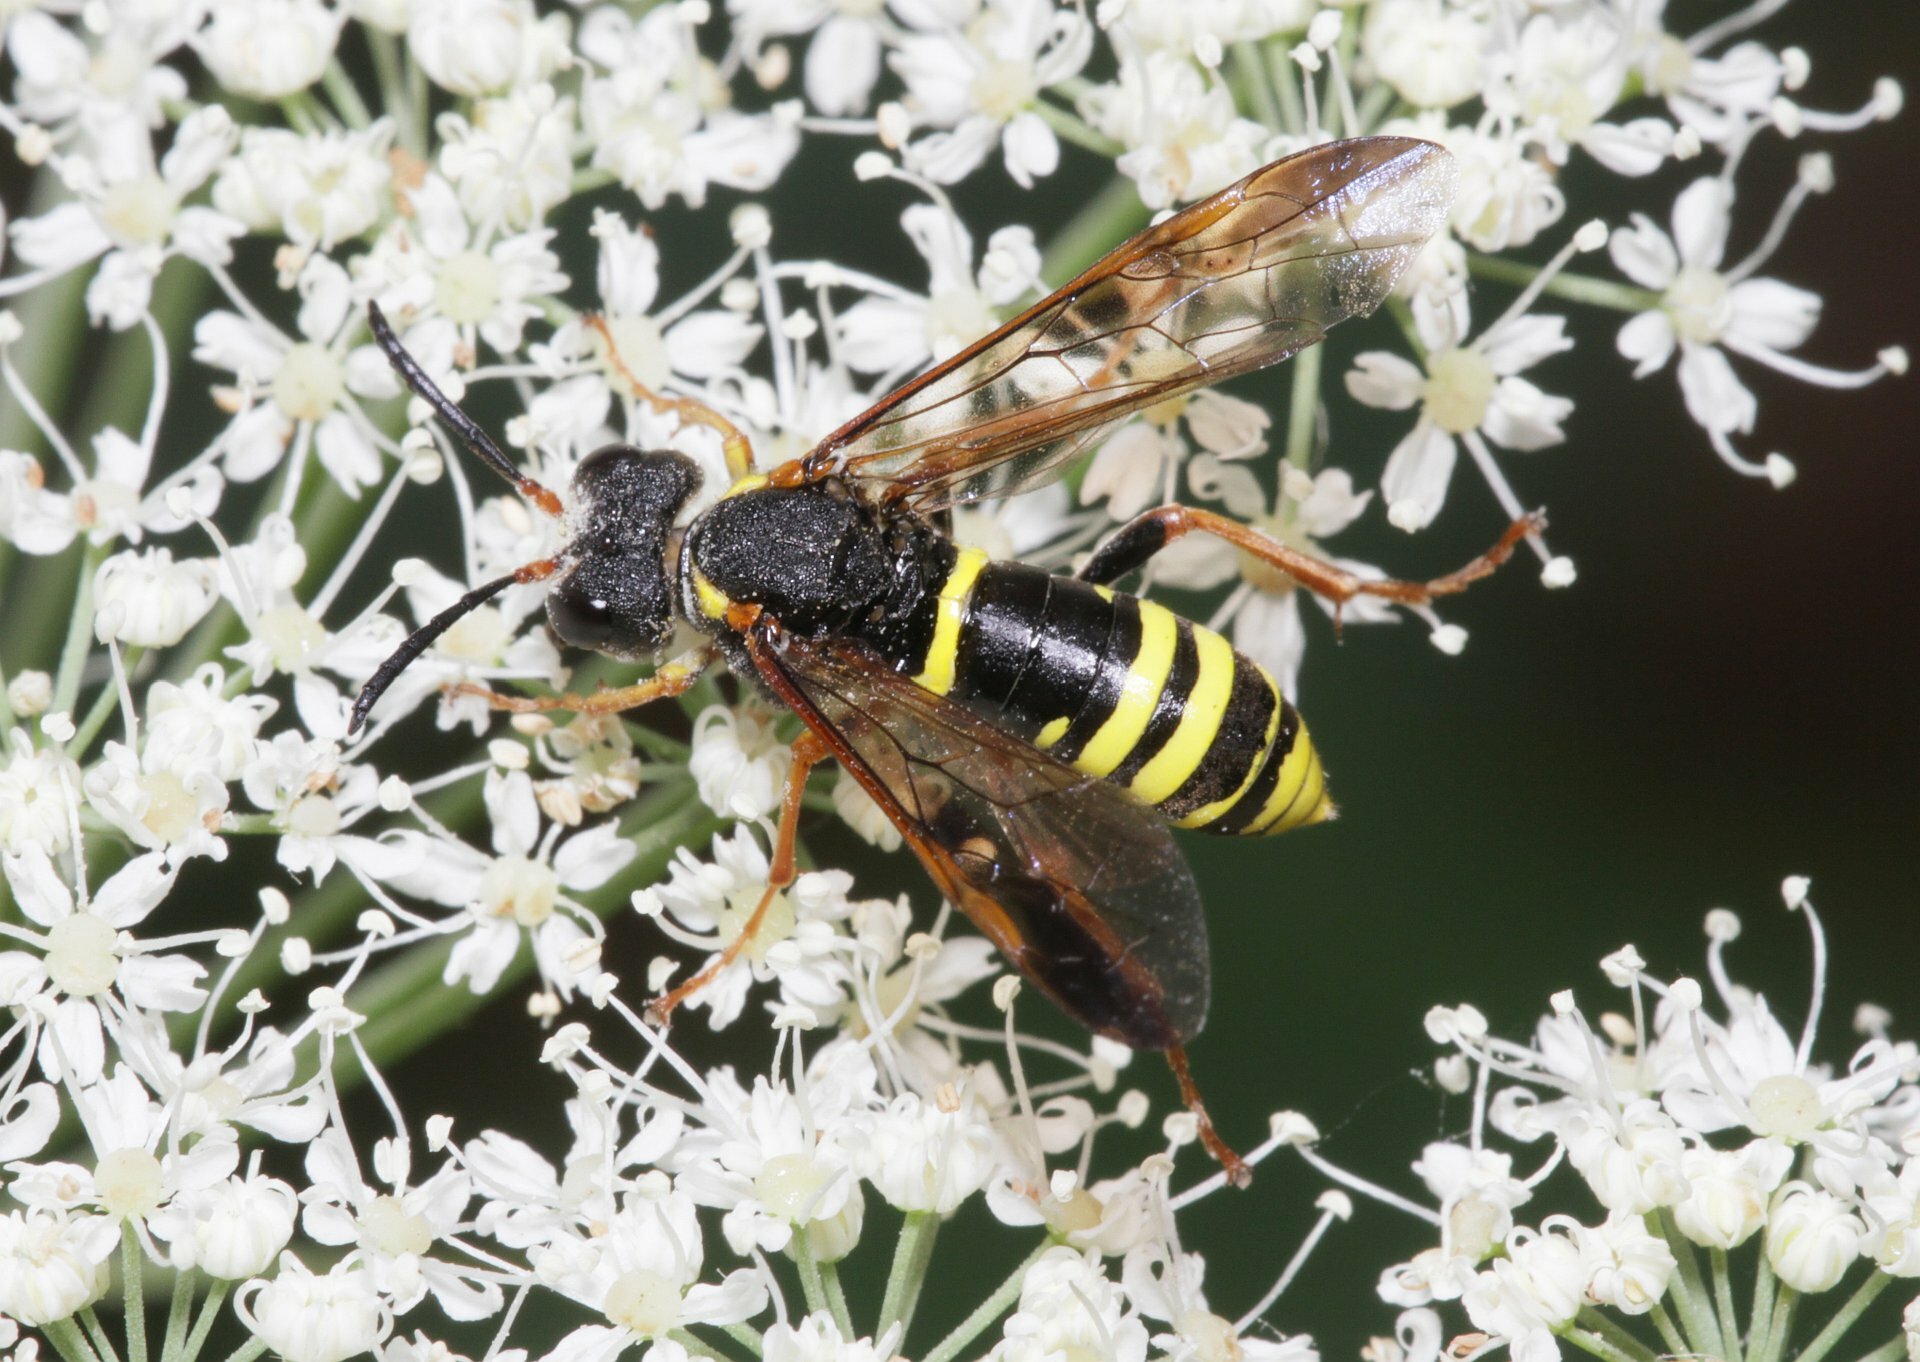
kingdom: Animalia
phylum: Arthropoda
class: Insecta
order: Hymenoptera
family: Tenthredinidae
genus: Tenthredo
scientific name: Tenthredo vespa
